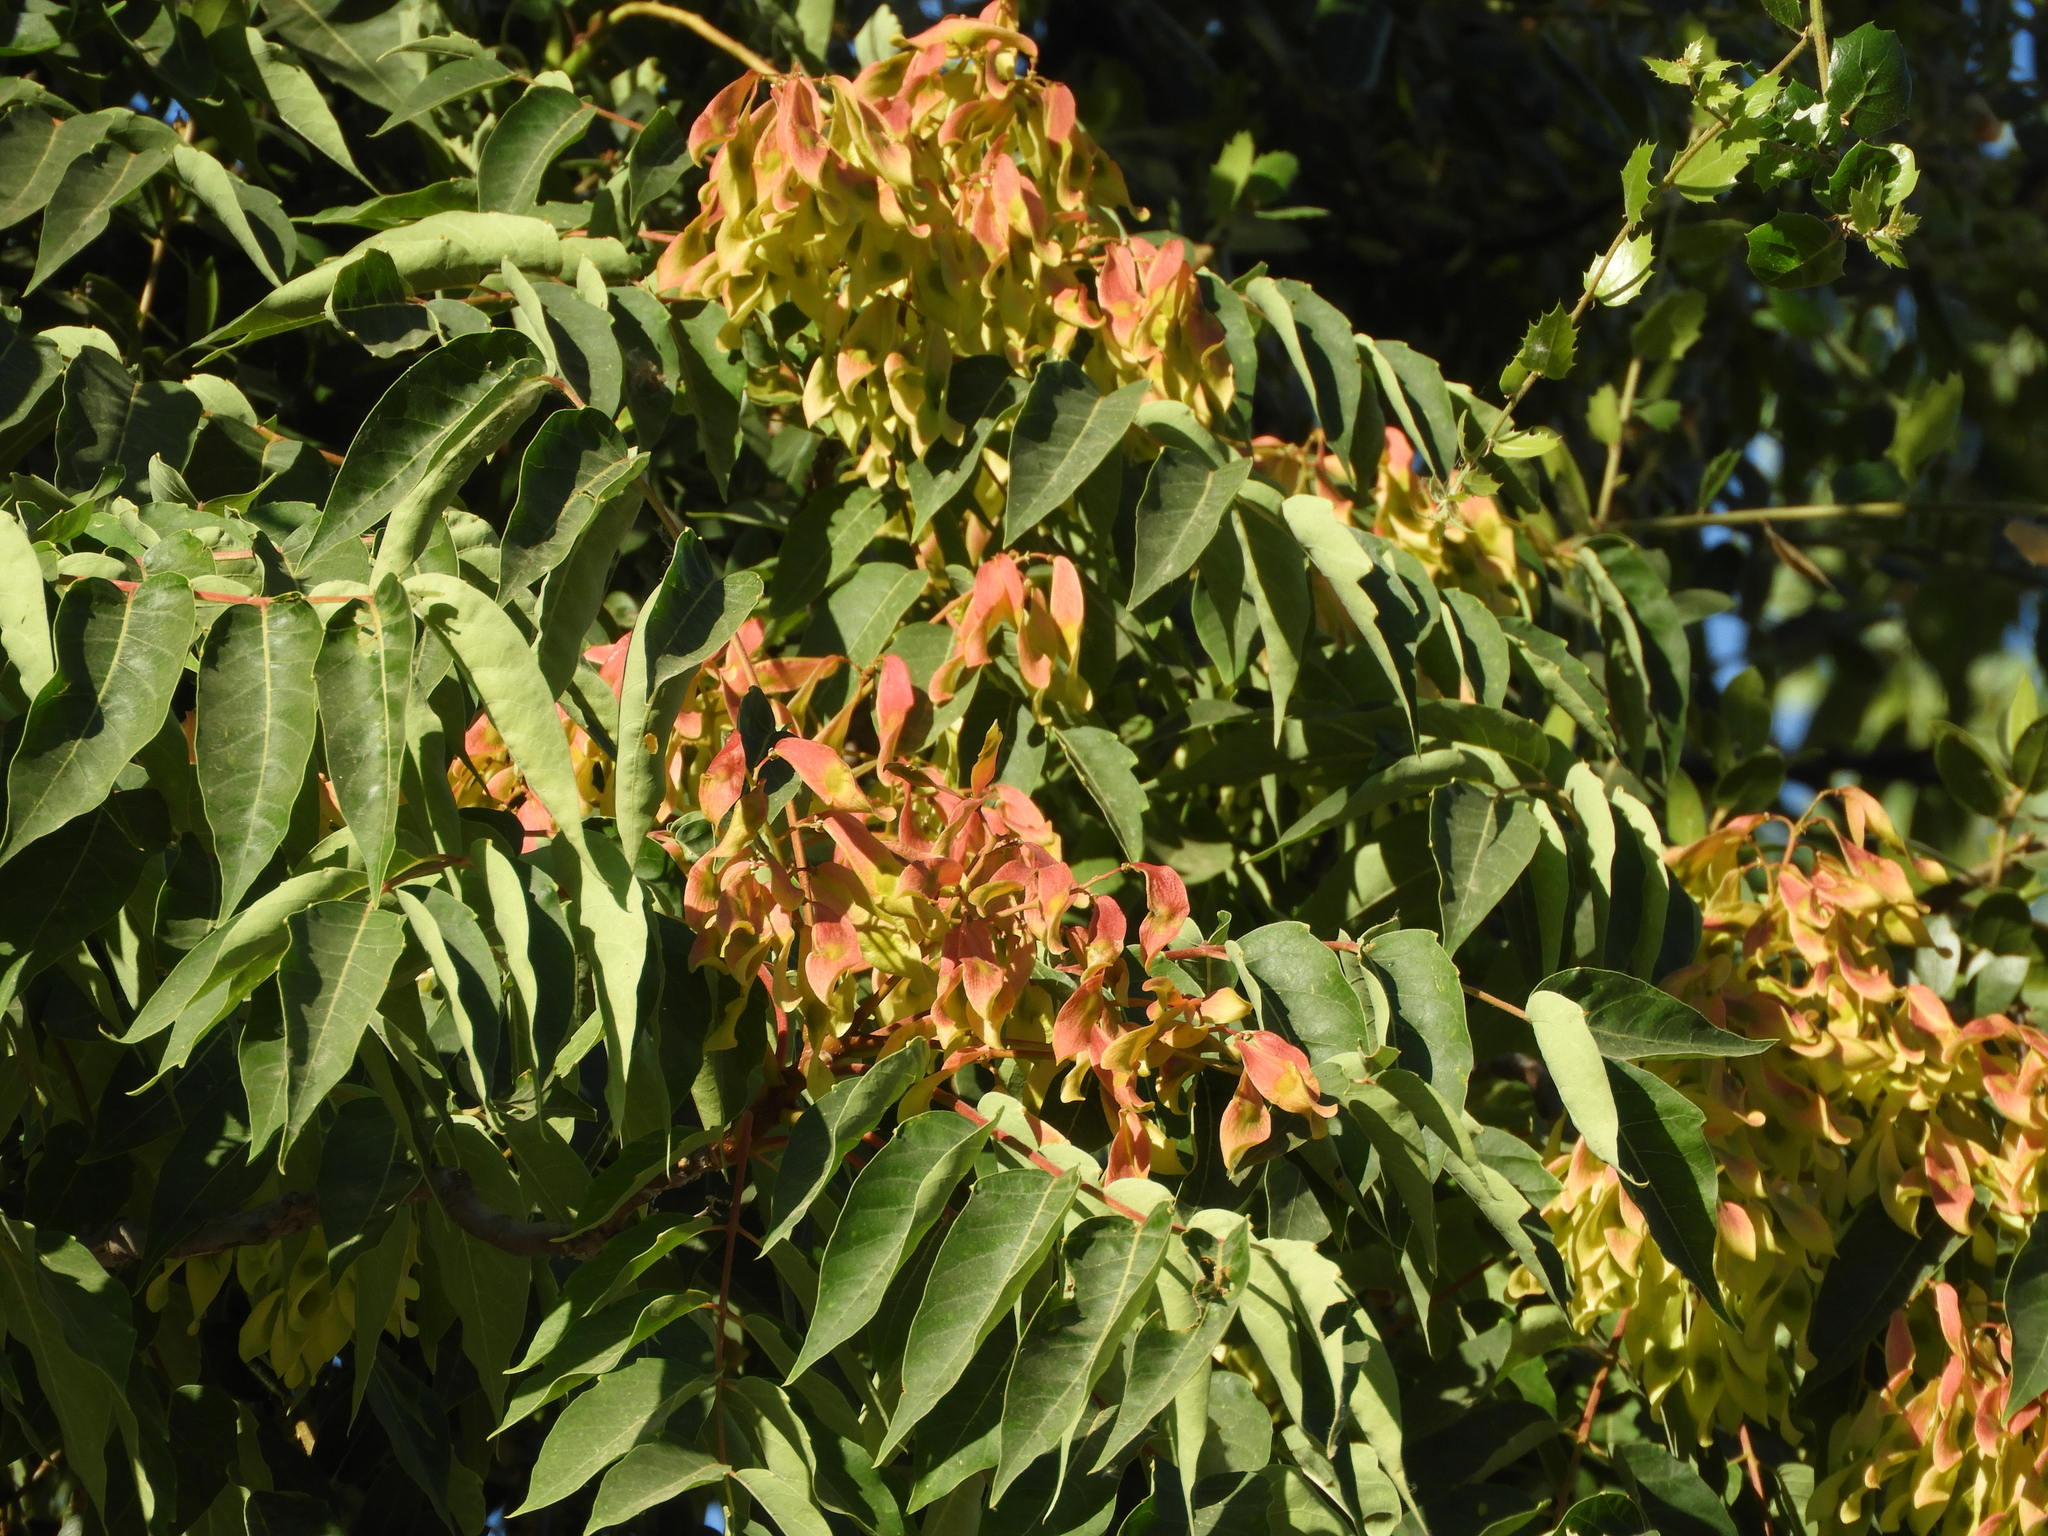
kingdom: Plantae
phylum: Tracheophyta
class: Magnoliopsida
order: Sapindales
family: Simaroubaceae
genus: Ailanthus
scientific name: Ailanthus altissima
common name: Tree-of-heaven
